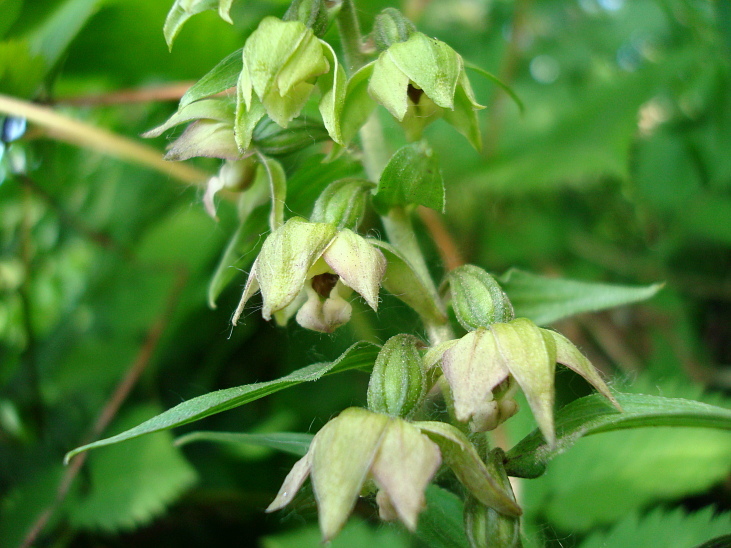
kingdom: Plantae
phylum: Tracheophyta
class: Liliopsida
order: Asparagales
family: Orchidaceae
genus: Epipactis
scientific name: Epipactis papillosa
